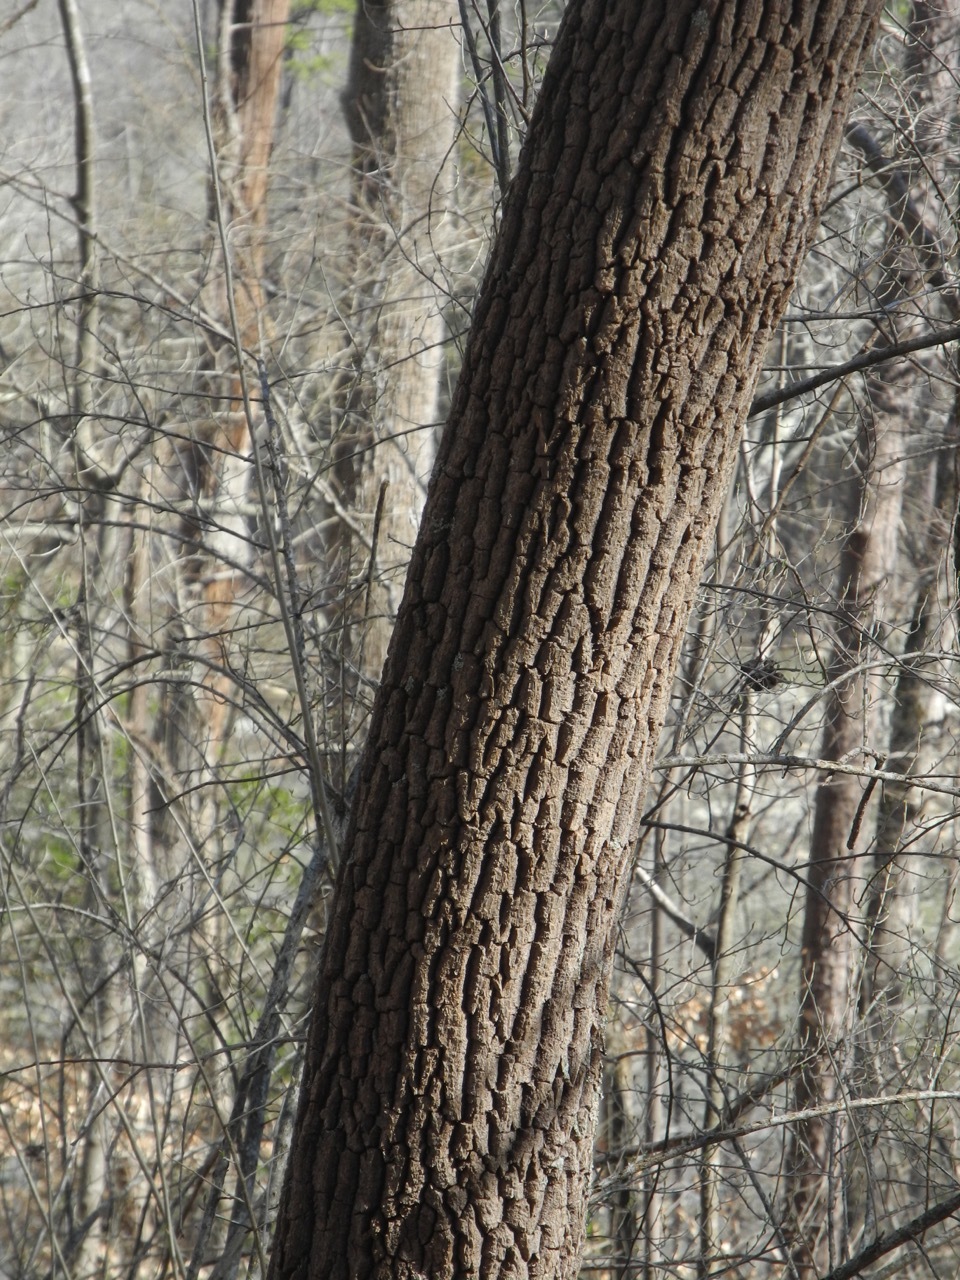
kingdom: Plantae
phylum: Tracheophyta
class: Magnoliopsida
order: Ericales
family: Ericaceae
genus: Oxydendrum
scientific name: Oxydendrum arboreum
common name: Sourwood
